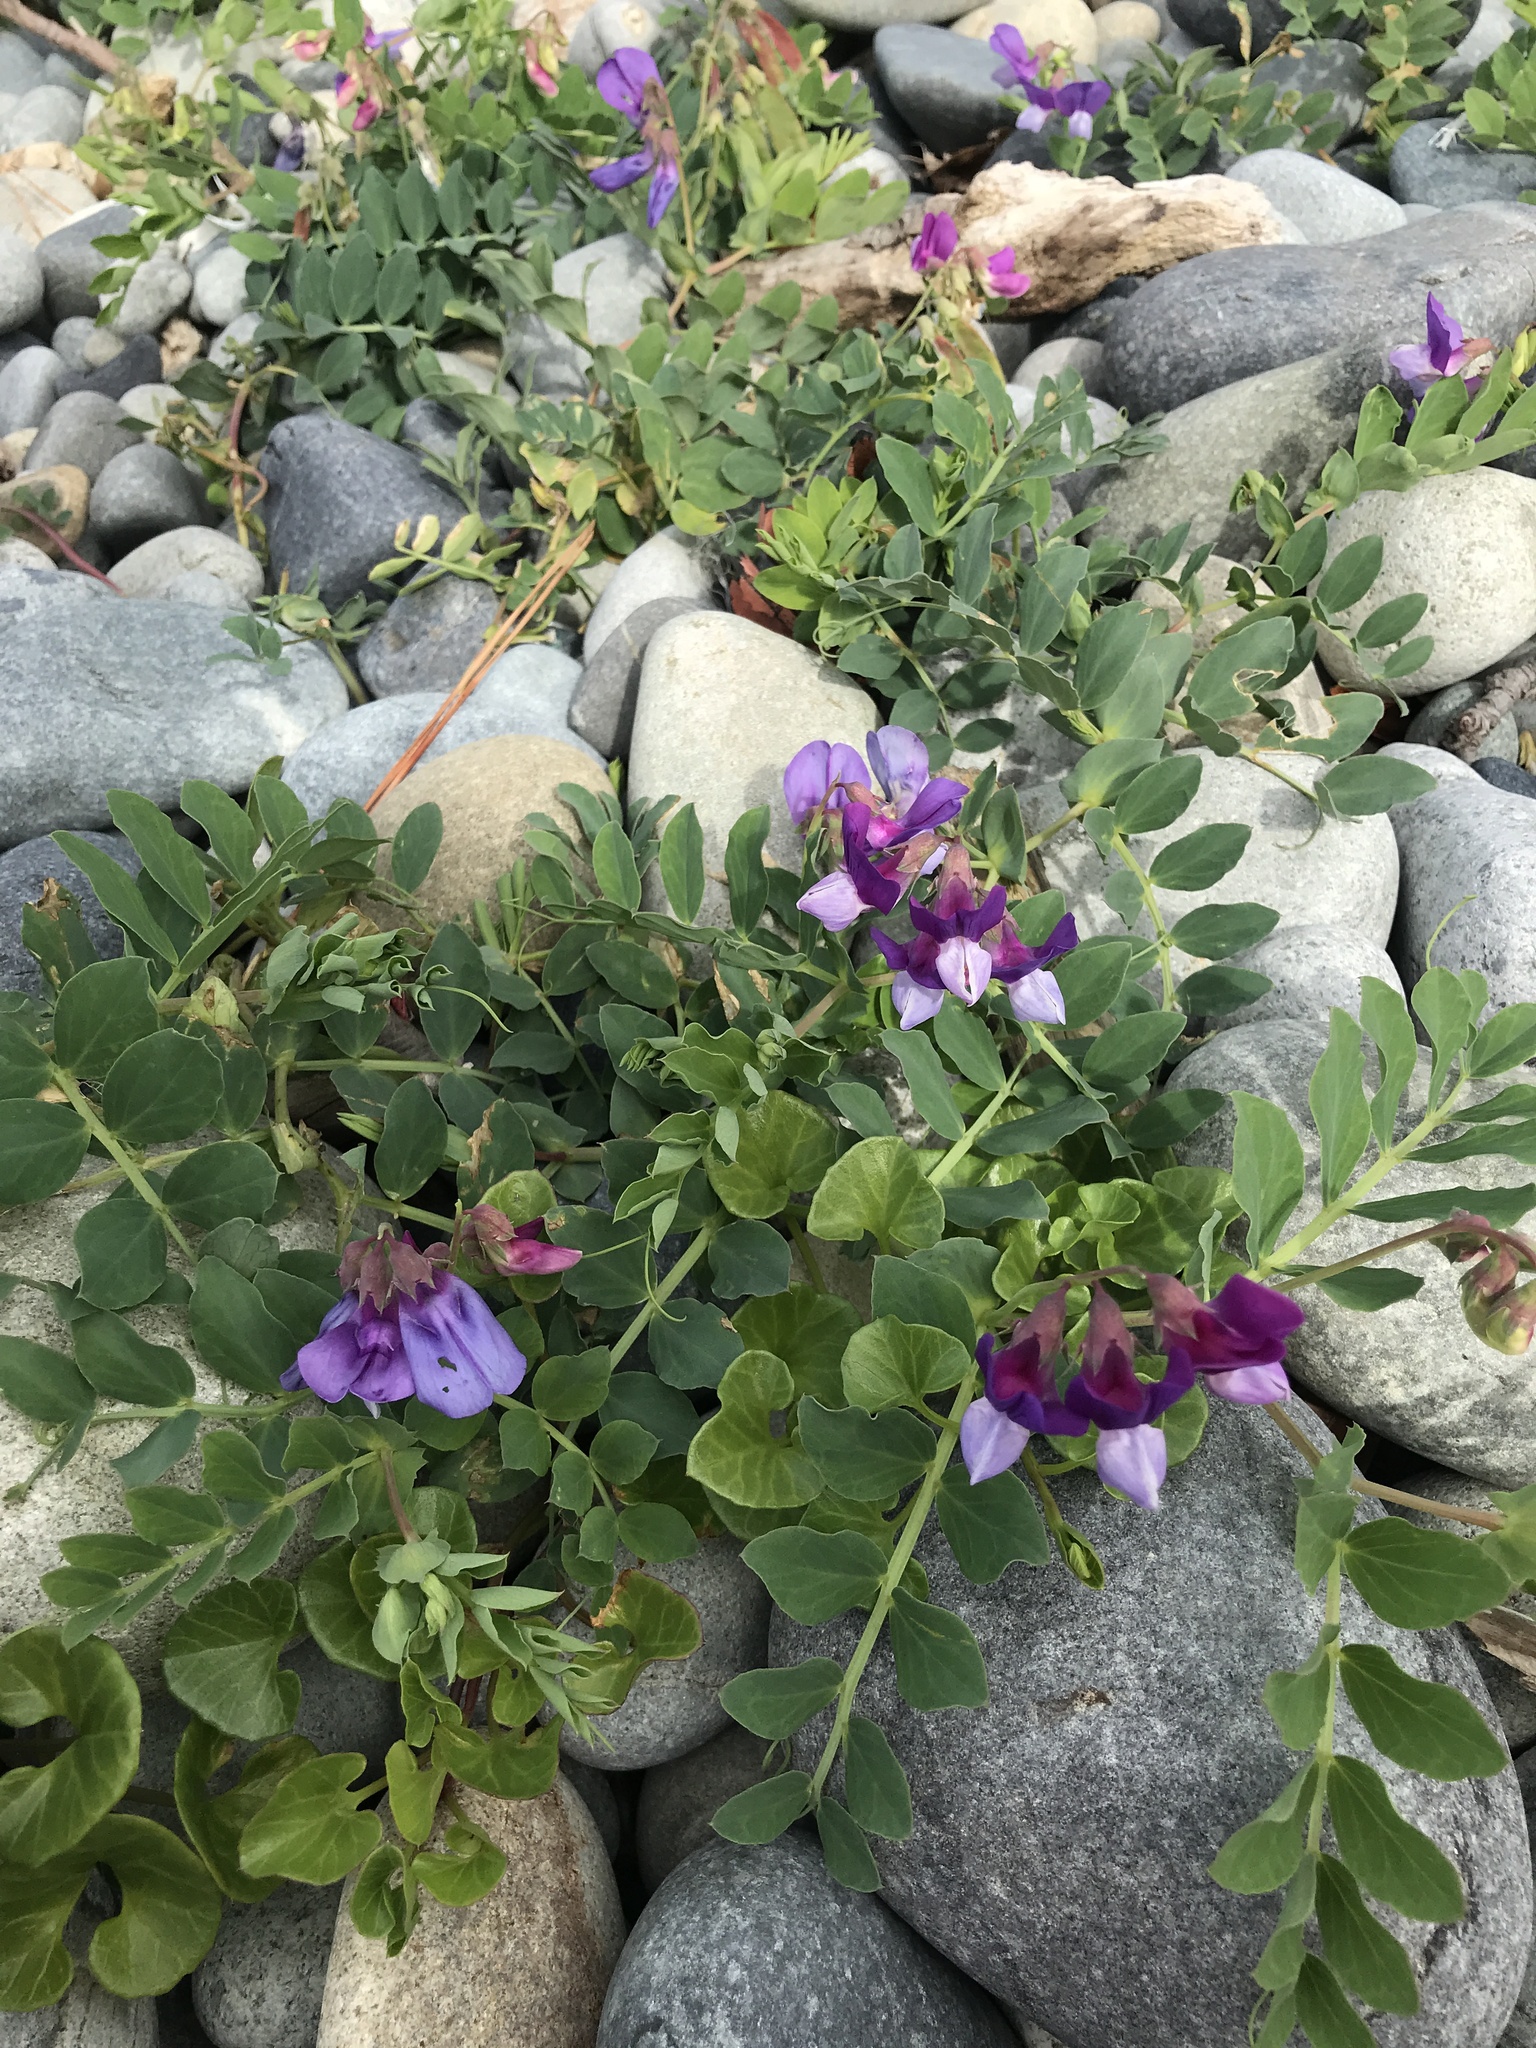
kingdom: Plantae
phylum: Tracheophyta
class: Magnoliopsida
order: Fabales
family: Fabaceae
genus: Lathyrus
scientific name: Lathyrus japonicus
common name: Sea pea
